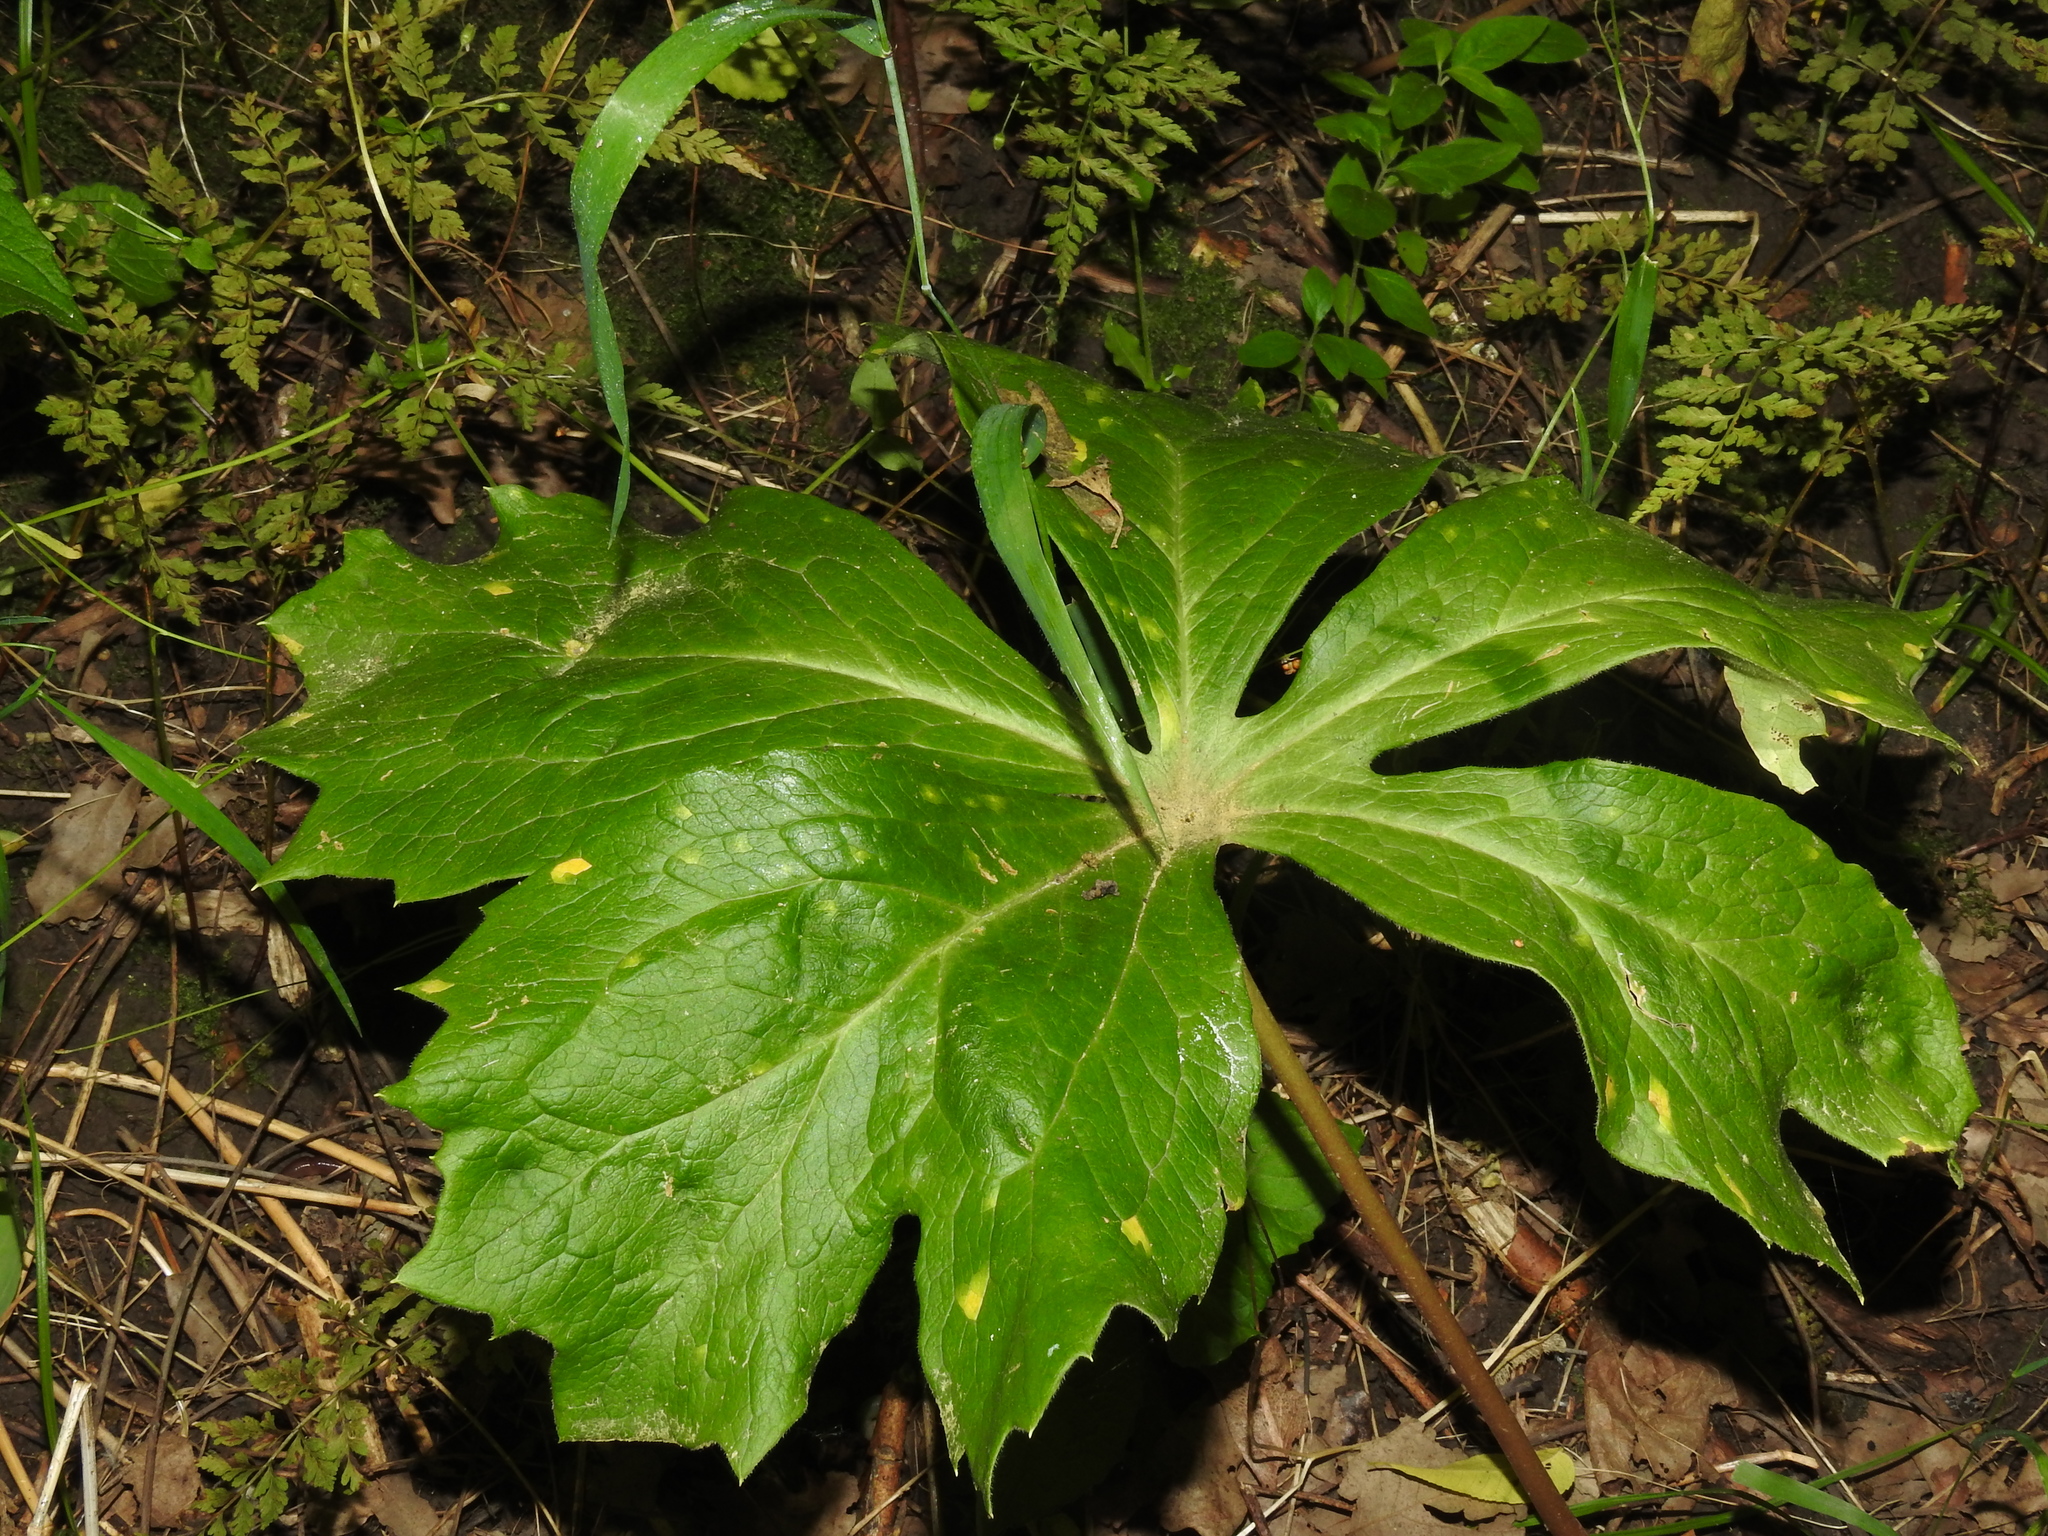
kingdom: Plantae
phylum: Tracheophyta
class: Magnoliopsida
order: Ranunculales
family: Berberidaceae
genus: Podophyllum
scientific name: Podophyllum peltatum
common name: Wild mandrake
